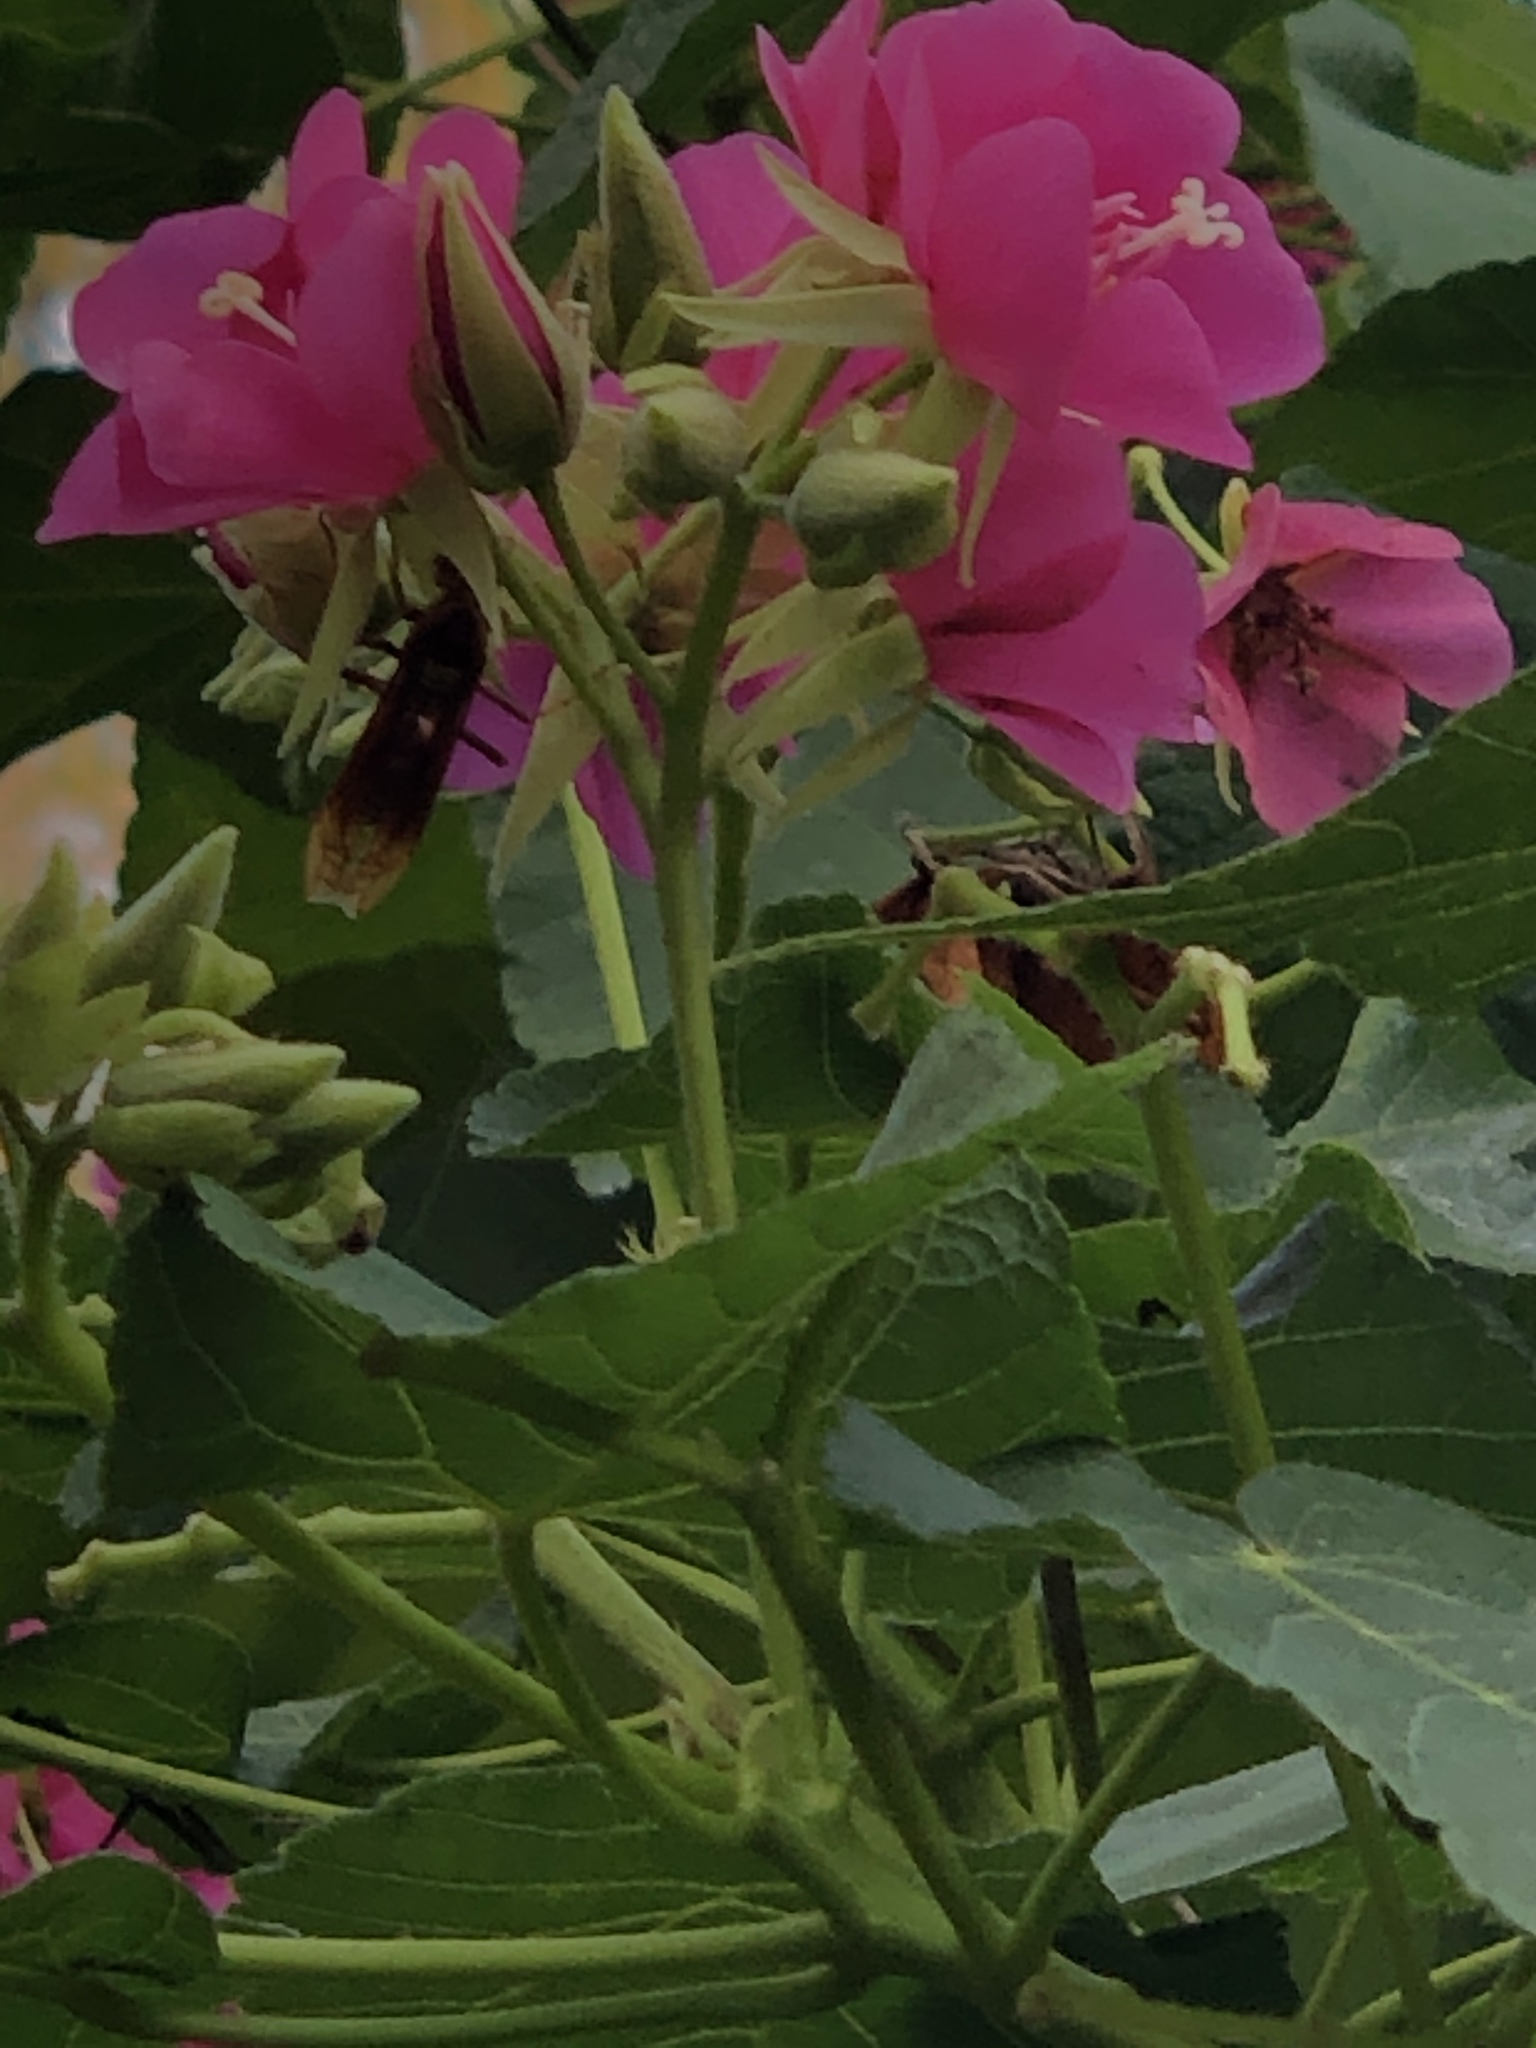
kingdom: Animalia
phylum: Arthropoda
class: Insecta
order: Hymenoptera
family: Eumenidae
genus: Polistes
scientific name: Polistes major
